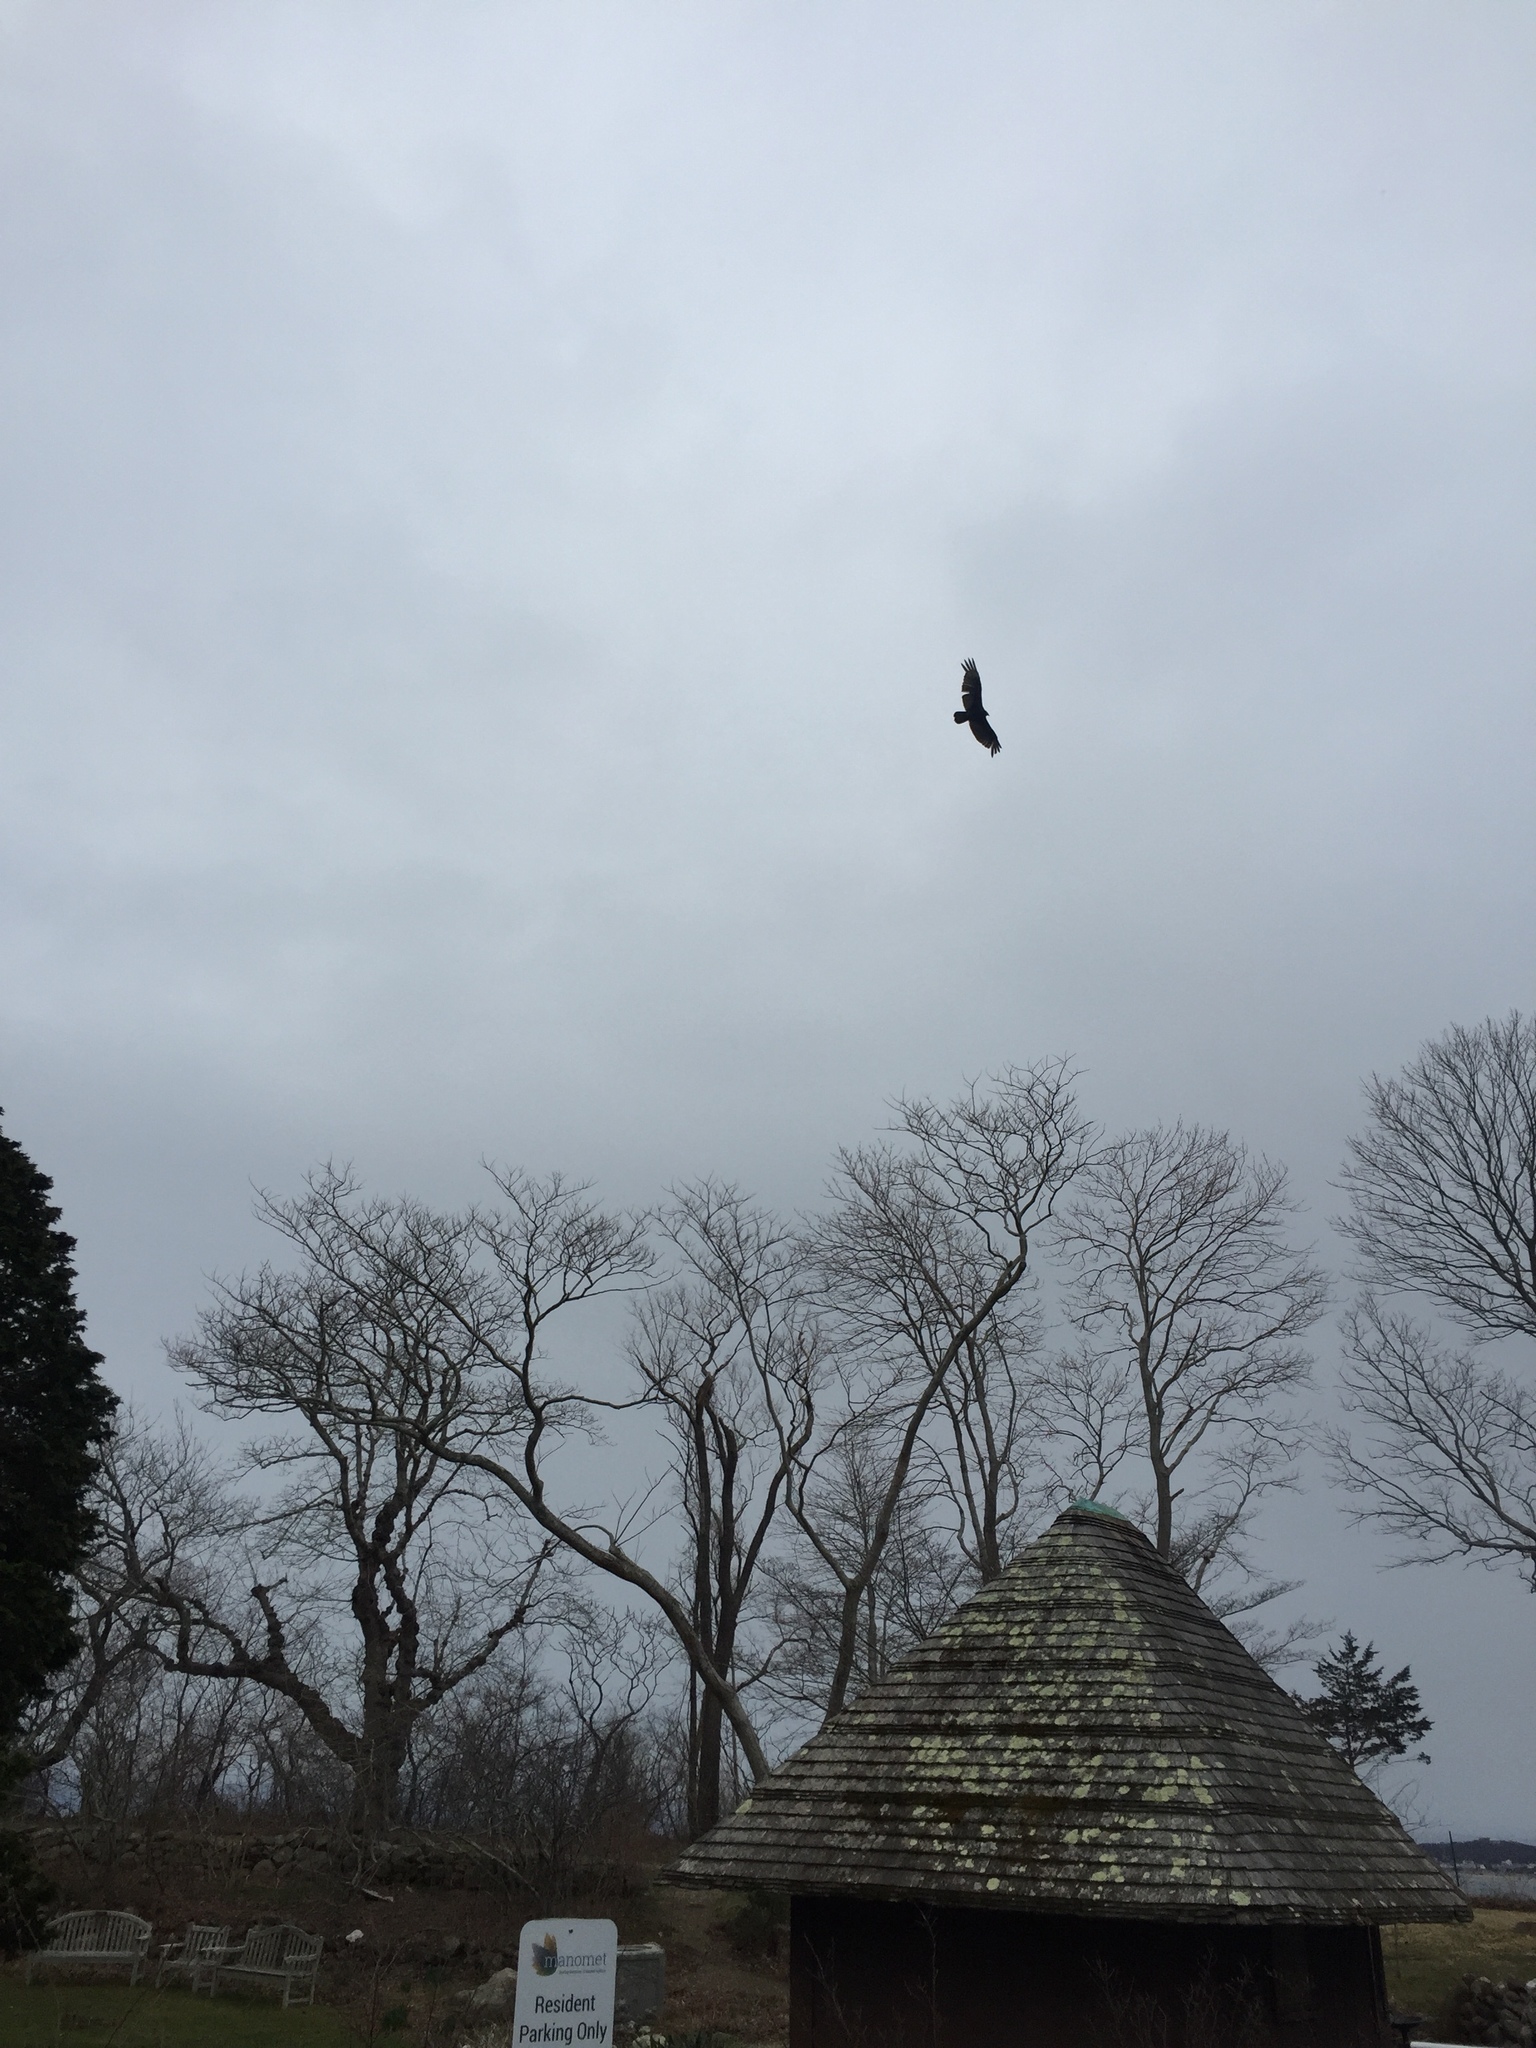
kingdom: Animalia
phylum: Chordata
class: Aves
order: Accipitriformes
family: Cathartidae
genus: Cathartes
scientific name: Cathartes aura
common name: Turkey vulture
